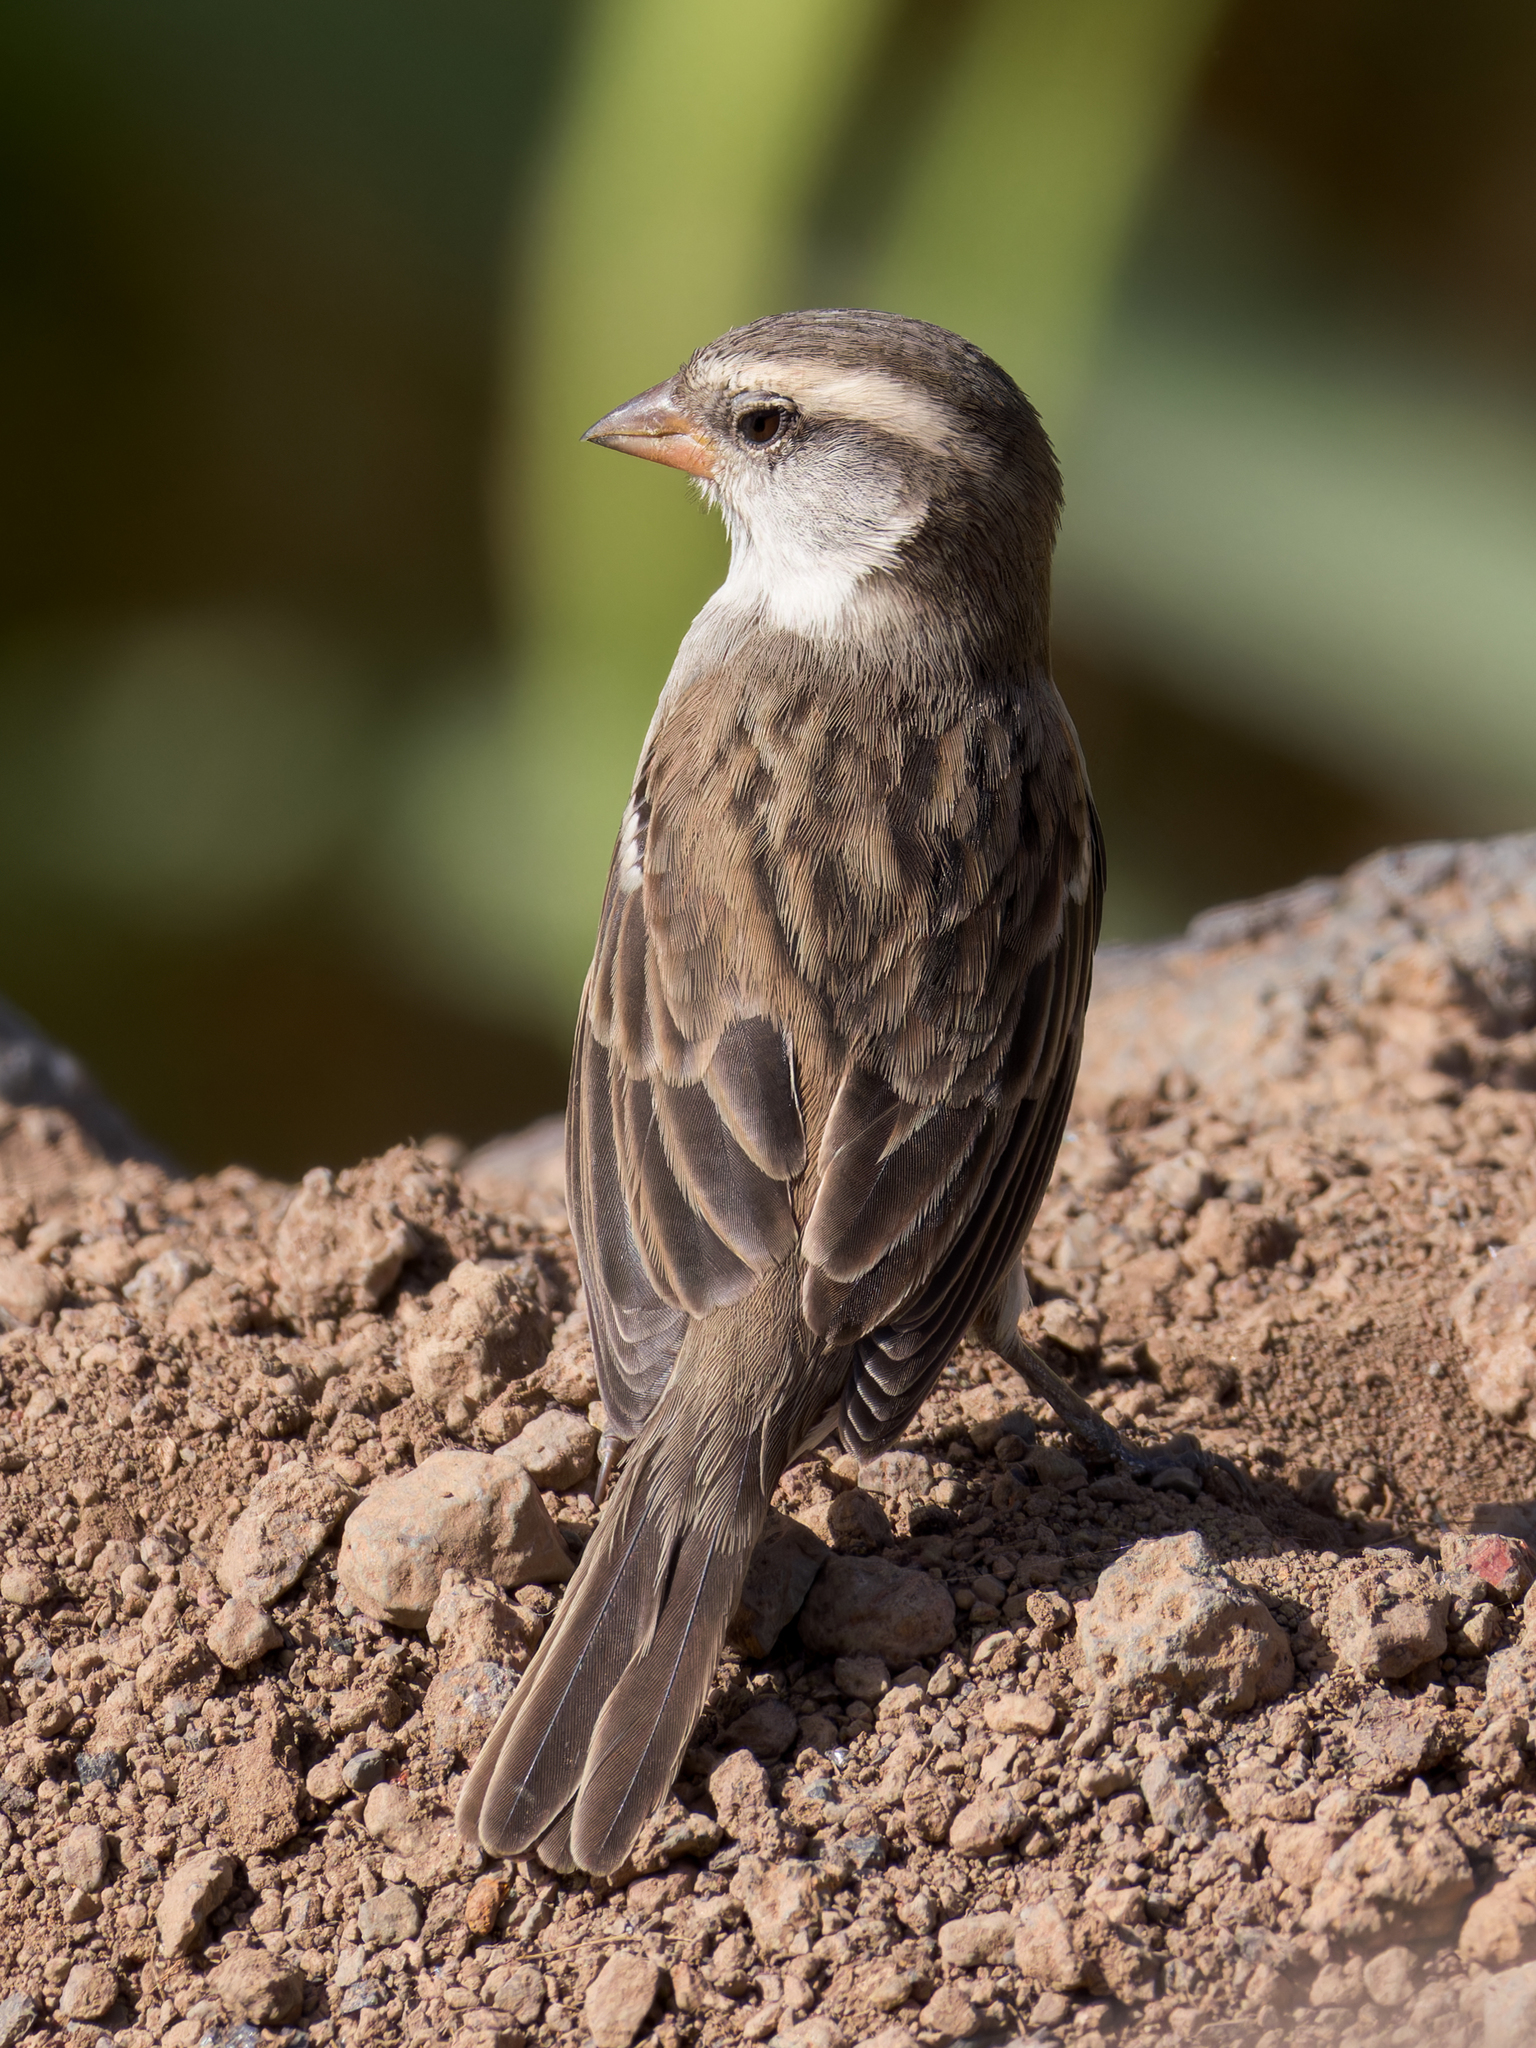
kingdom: Animalia
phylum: Chordata
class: Aves
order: Passeriformes
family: Passeridae
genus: Passer
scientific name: Passer iagoensis
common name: Iago sparrow
